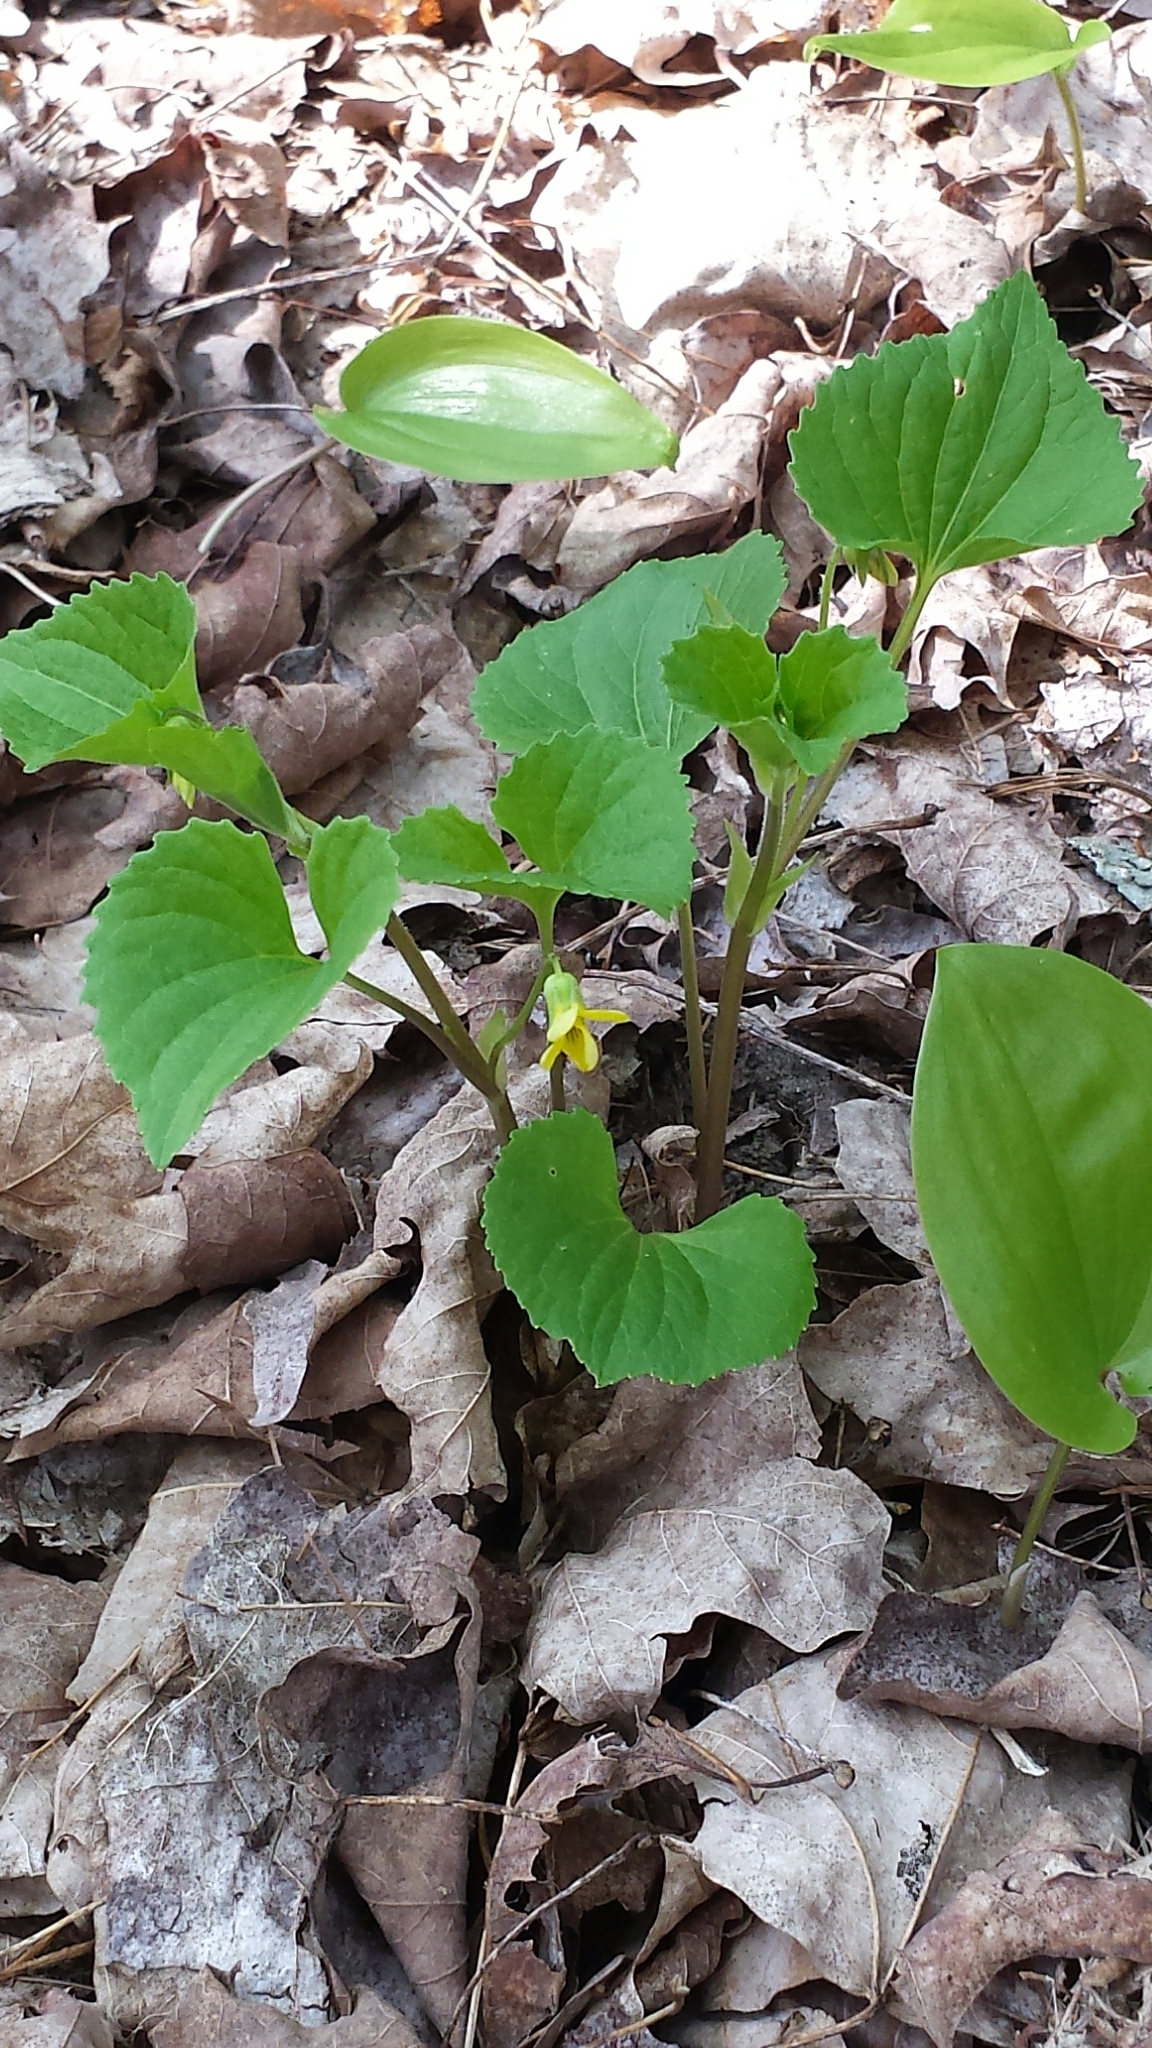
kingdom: Plantae
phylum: Tracheophyta
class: Magnoliopsida
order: Malpighiales
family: Violaceae
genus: Viola
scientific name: Viola eriocarpa
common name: Smooth yellow violet
